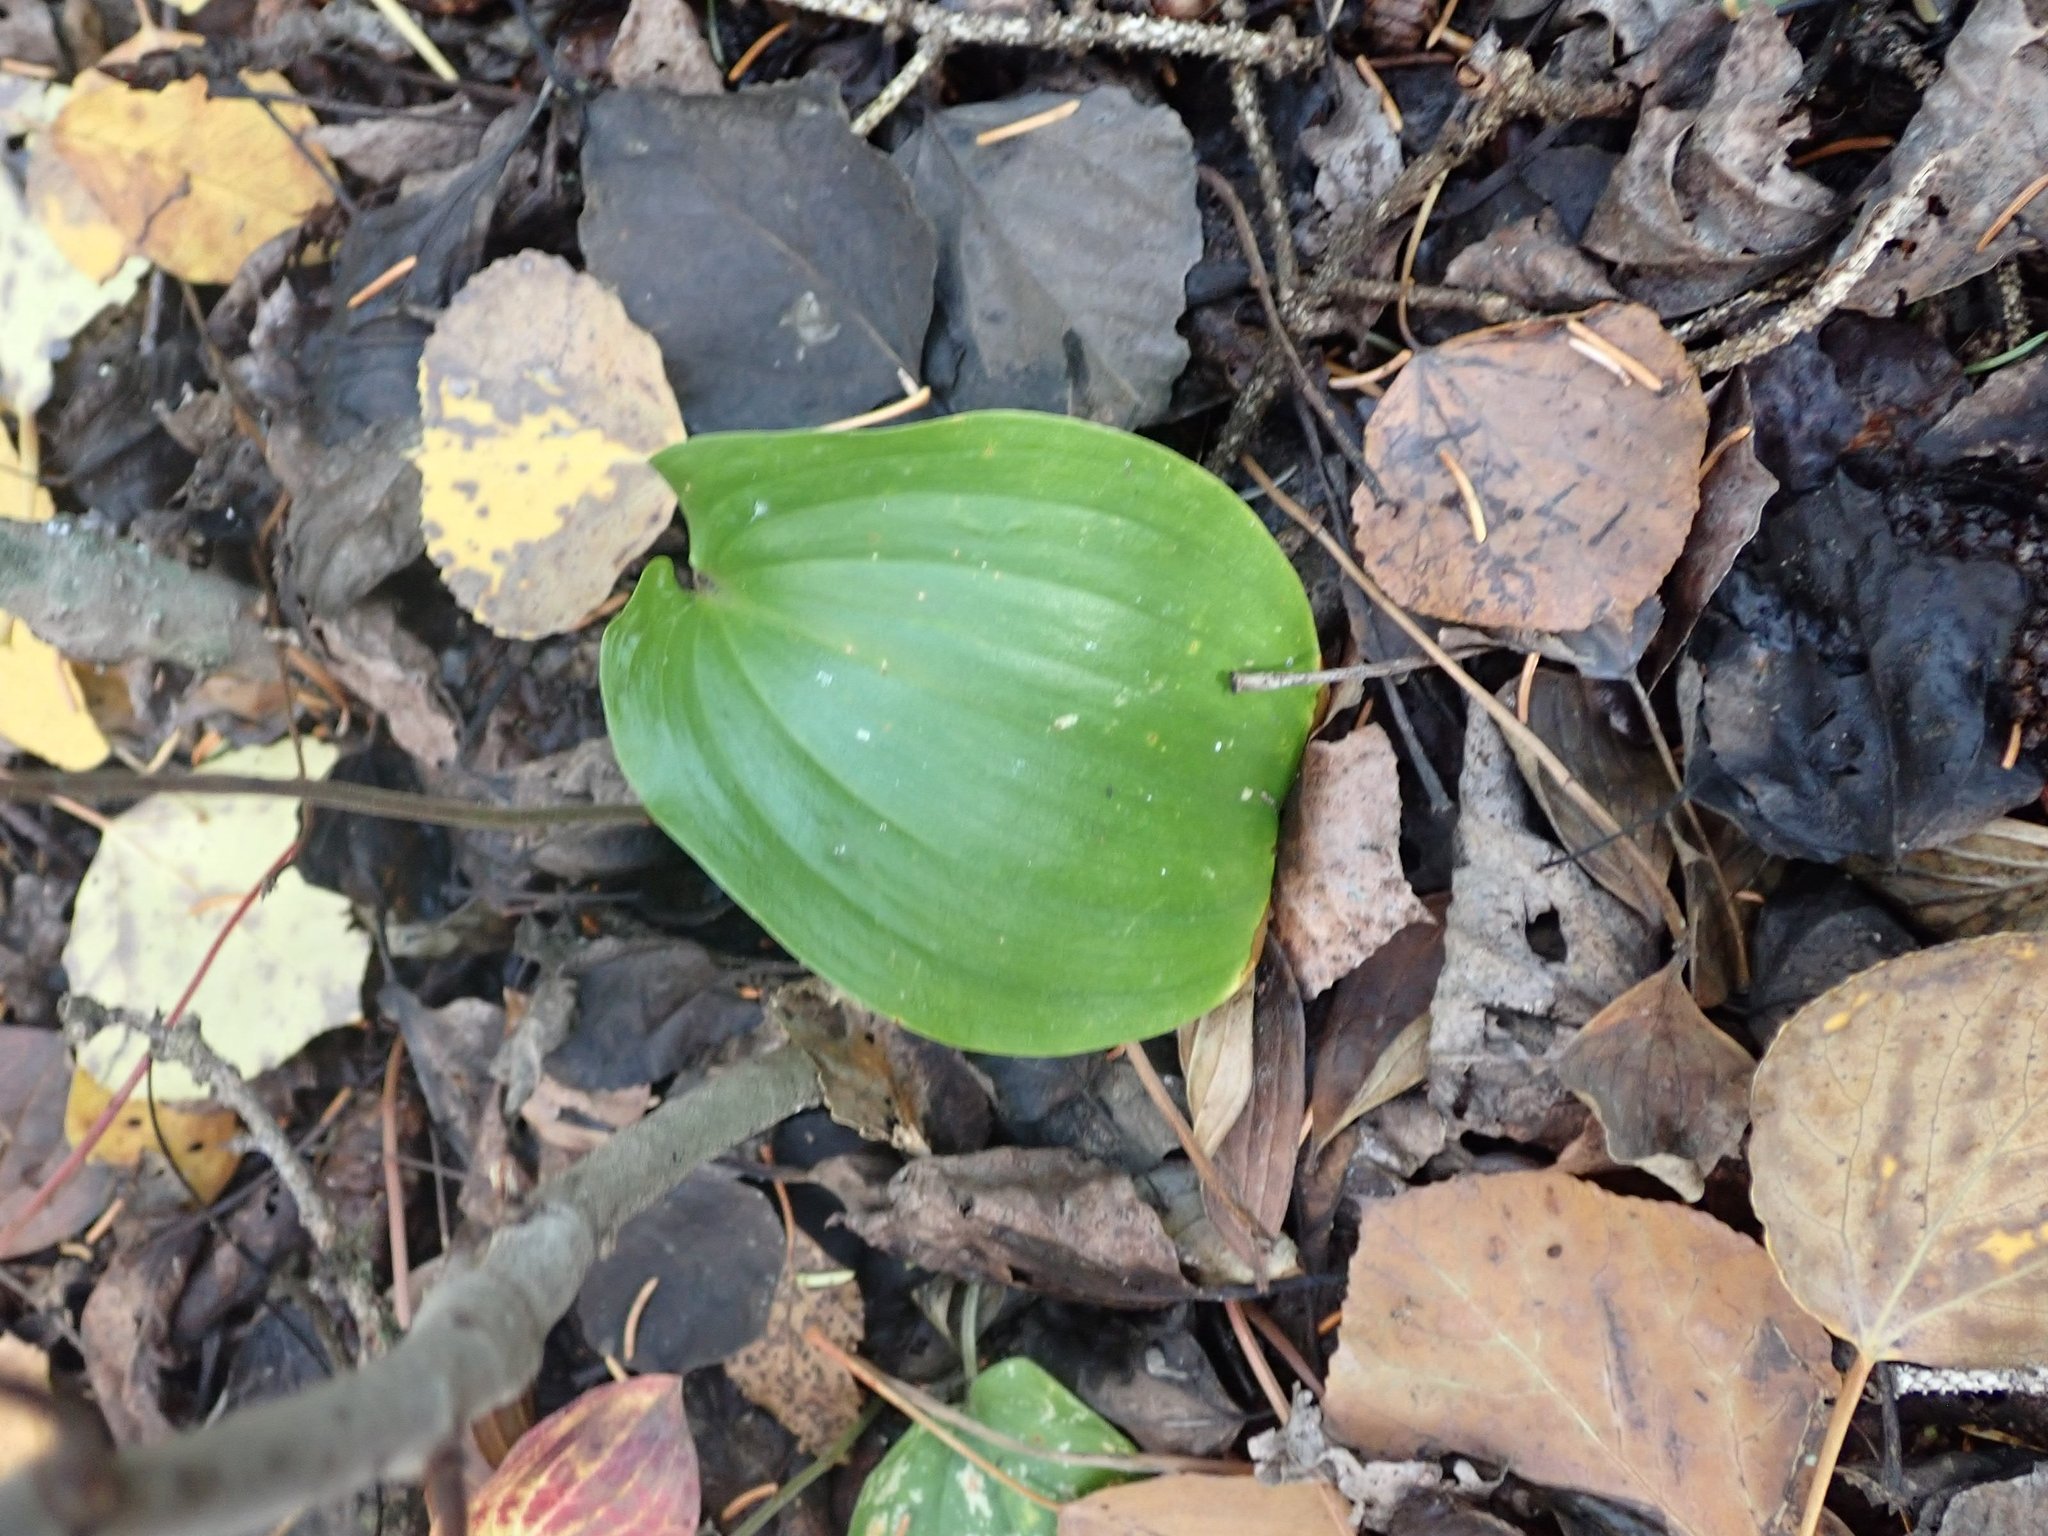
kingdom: Plantae
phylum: Tracheophyta
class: Liliopsida
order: Asparagales
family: Asparagaceae
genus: Maianthemum
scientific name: Maianthemum canadense
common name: False lily-of-the-valley
